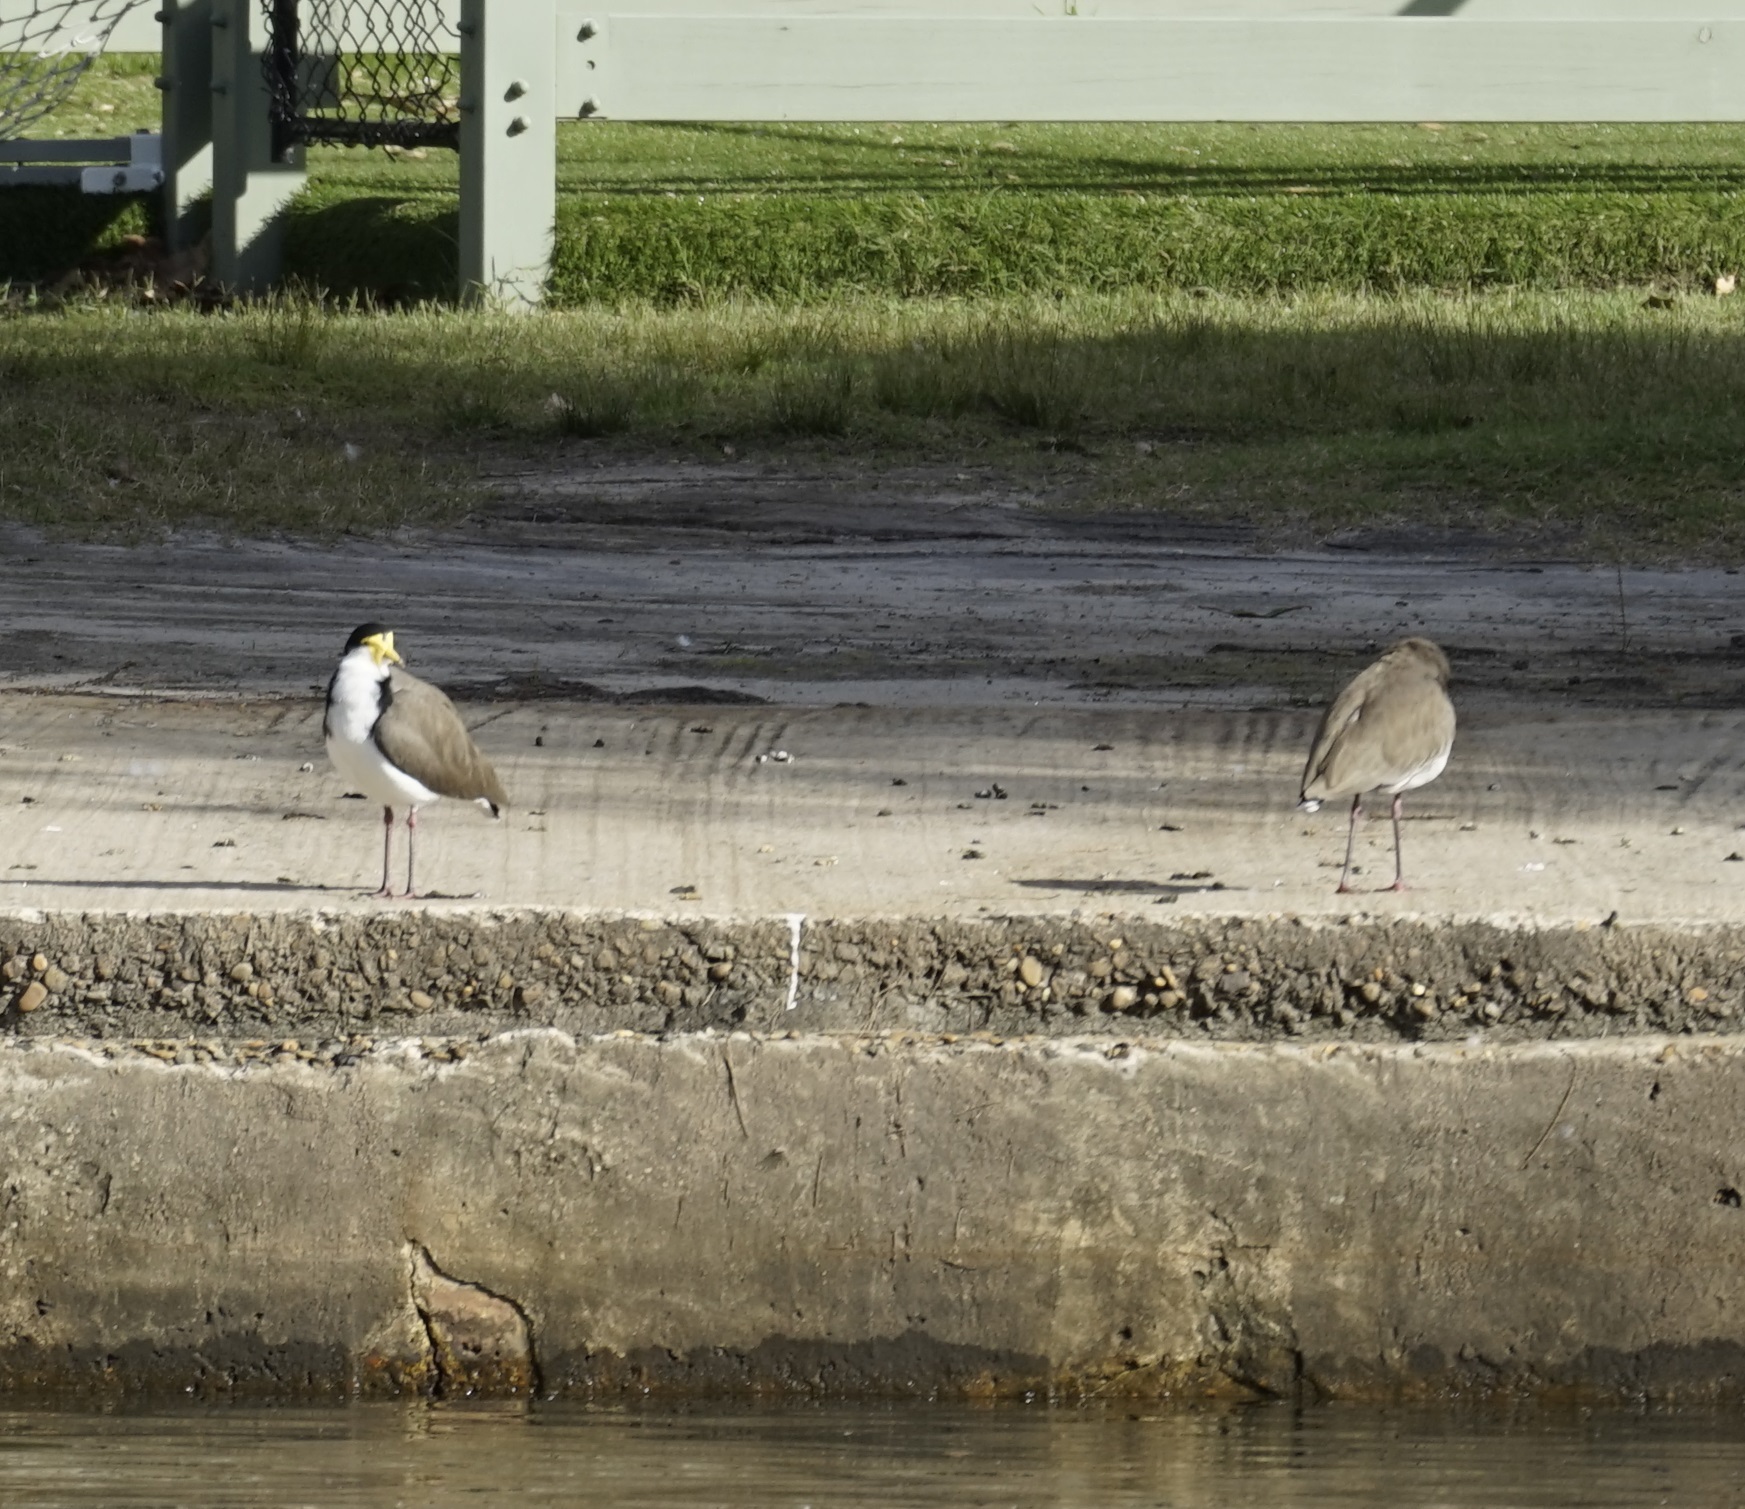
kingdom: Animalia
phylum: Chordata
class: Aves
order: Charadriiformes
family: Charadriidae
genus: Vanellus
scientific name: Vanellus miles
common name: Masked lapwing
